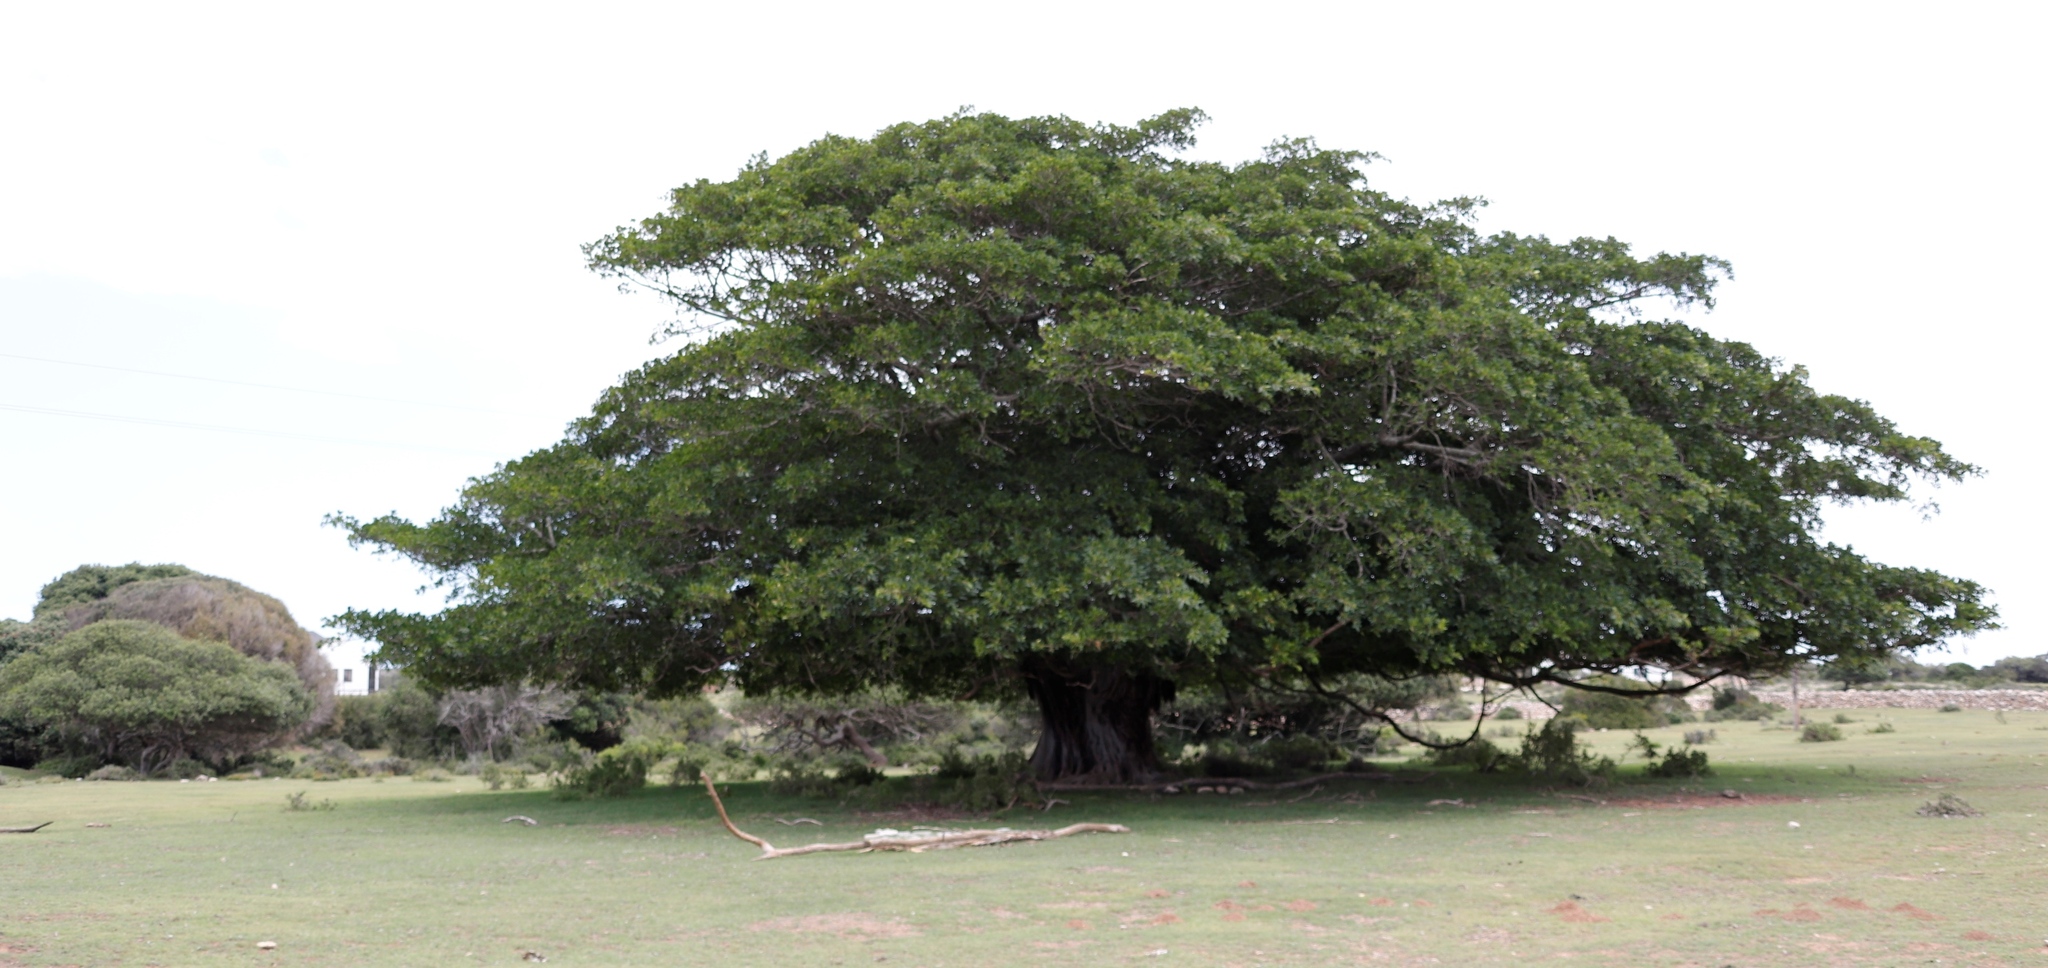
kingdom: Plantae
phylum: Tracheophyta
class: Magnoliopsida
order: Rosales
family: Moraceae
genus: Ficus
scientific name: Ficus thonningii
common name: Fig
